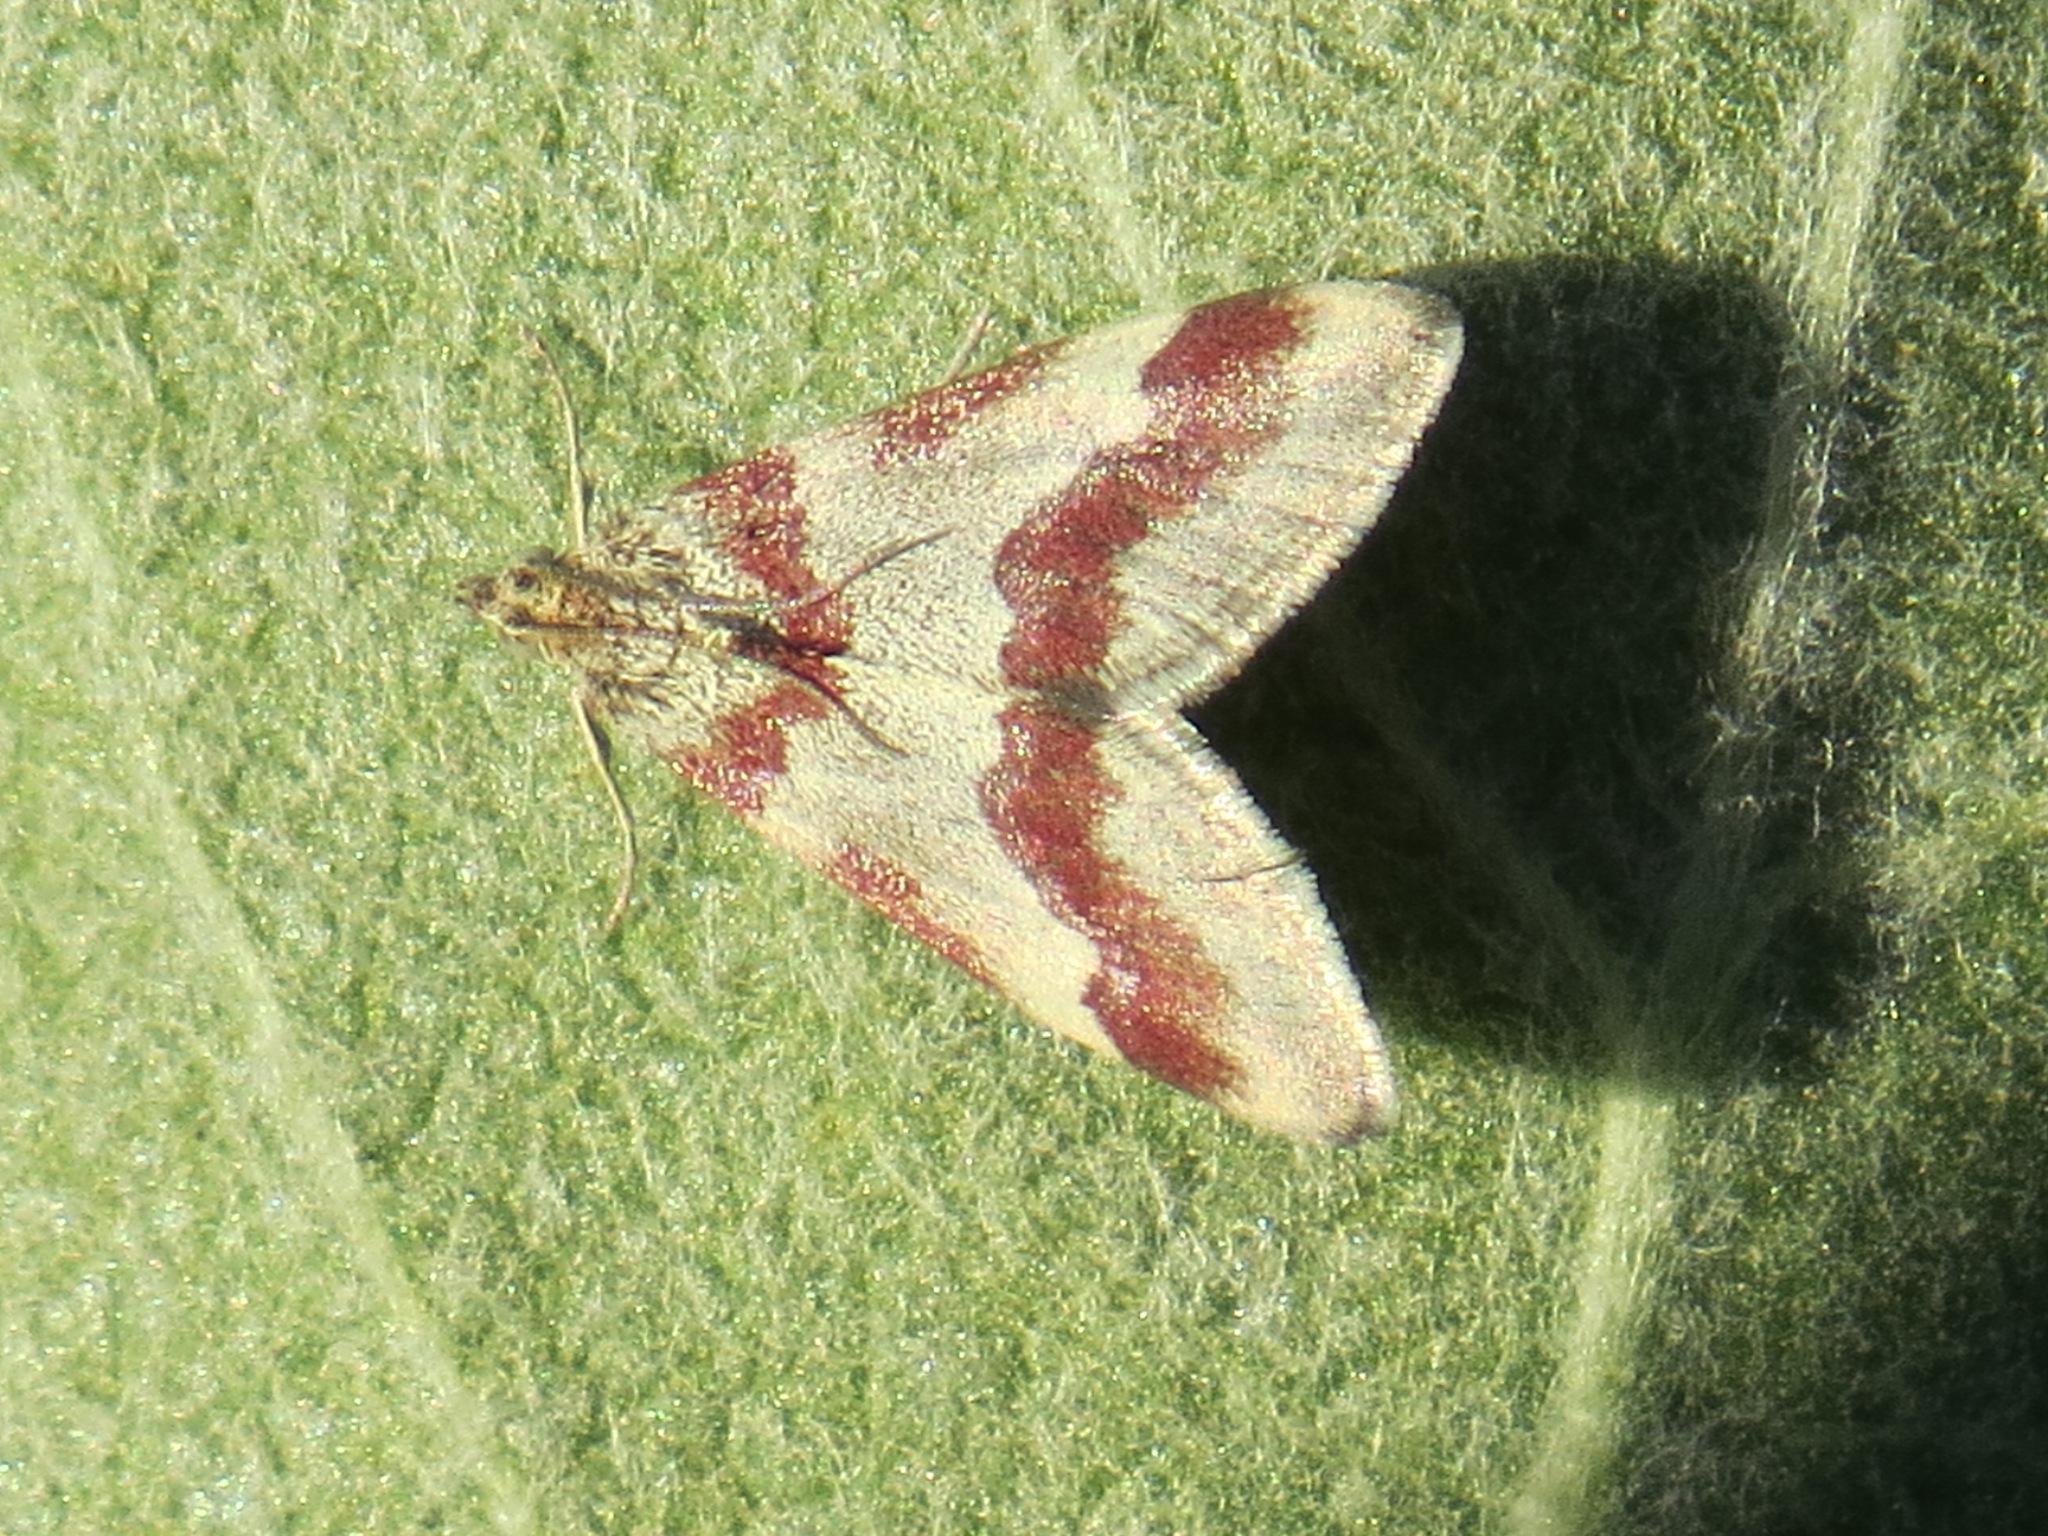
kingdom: Animalia
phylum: Arthropoda
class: Insecta
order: Lepidoptera
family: Crambidae
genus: Noctuelia
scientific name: Noctuelia Mimoschinia rufofascialis
